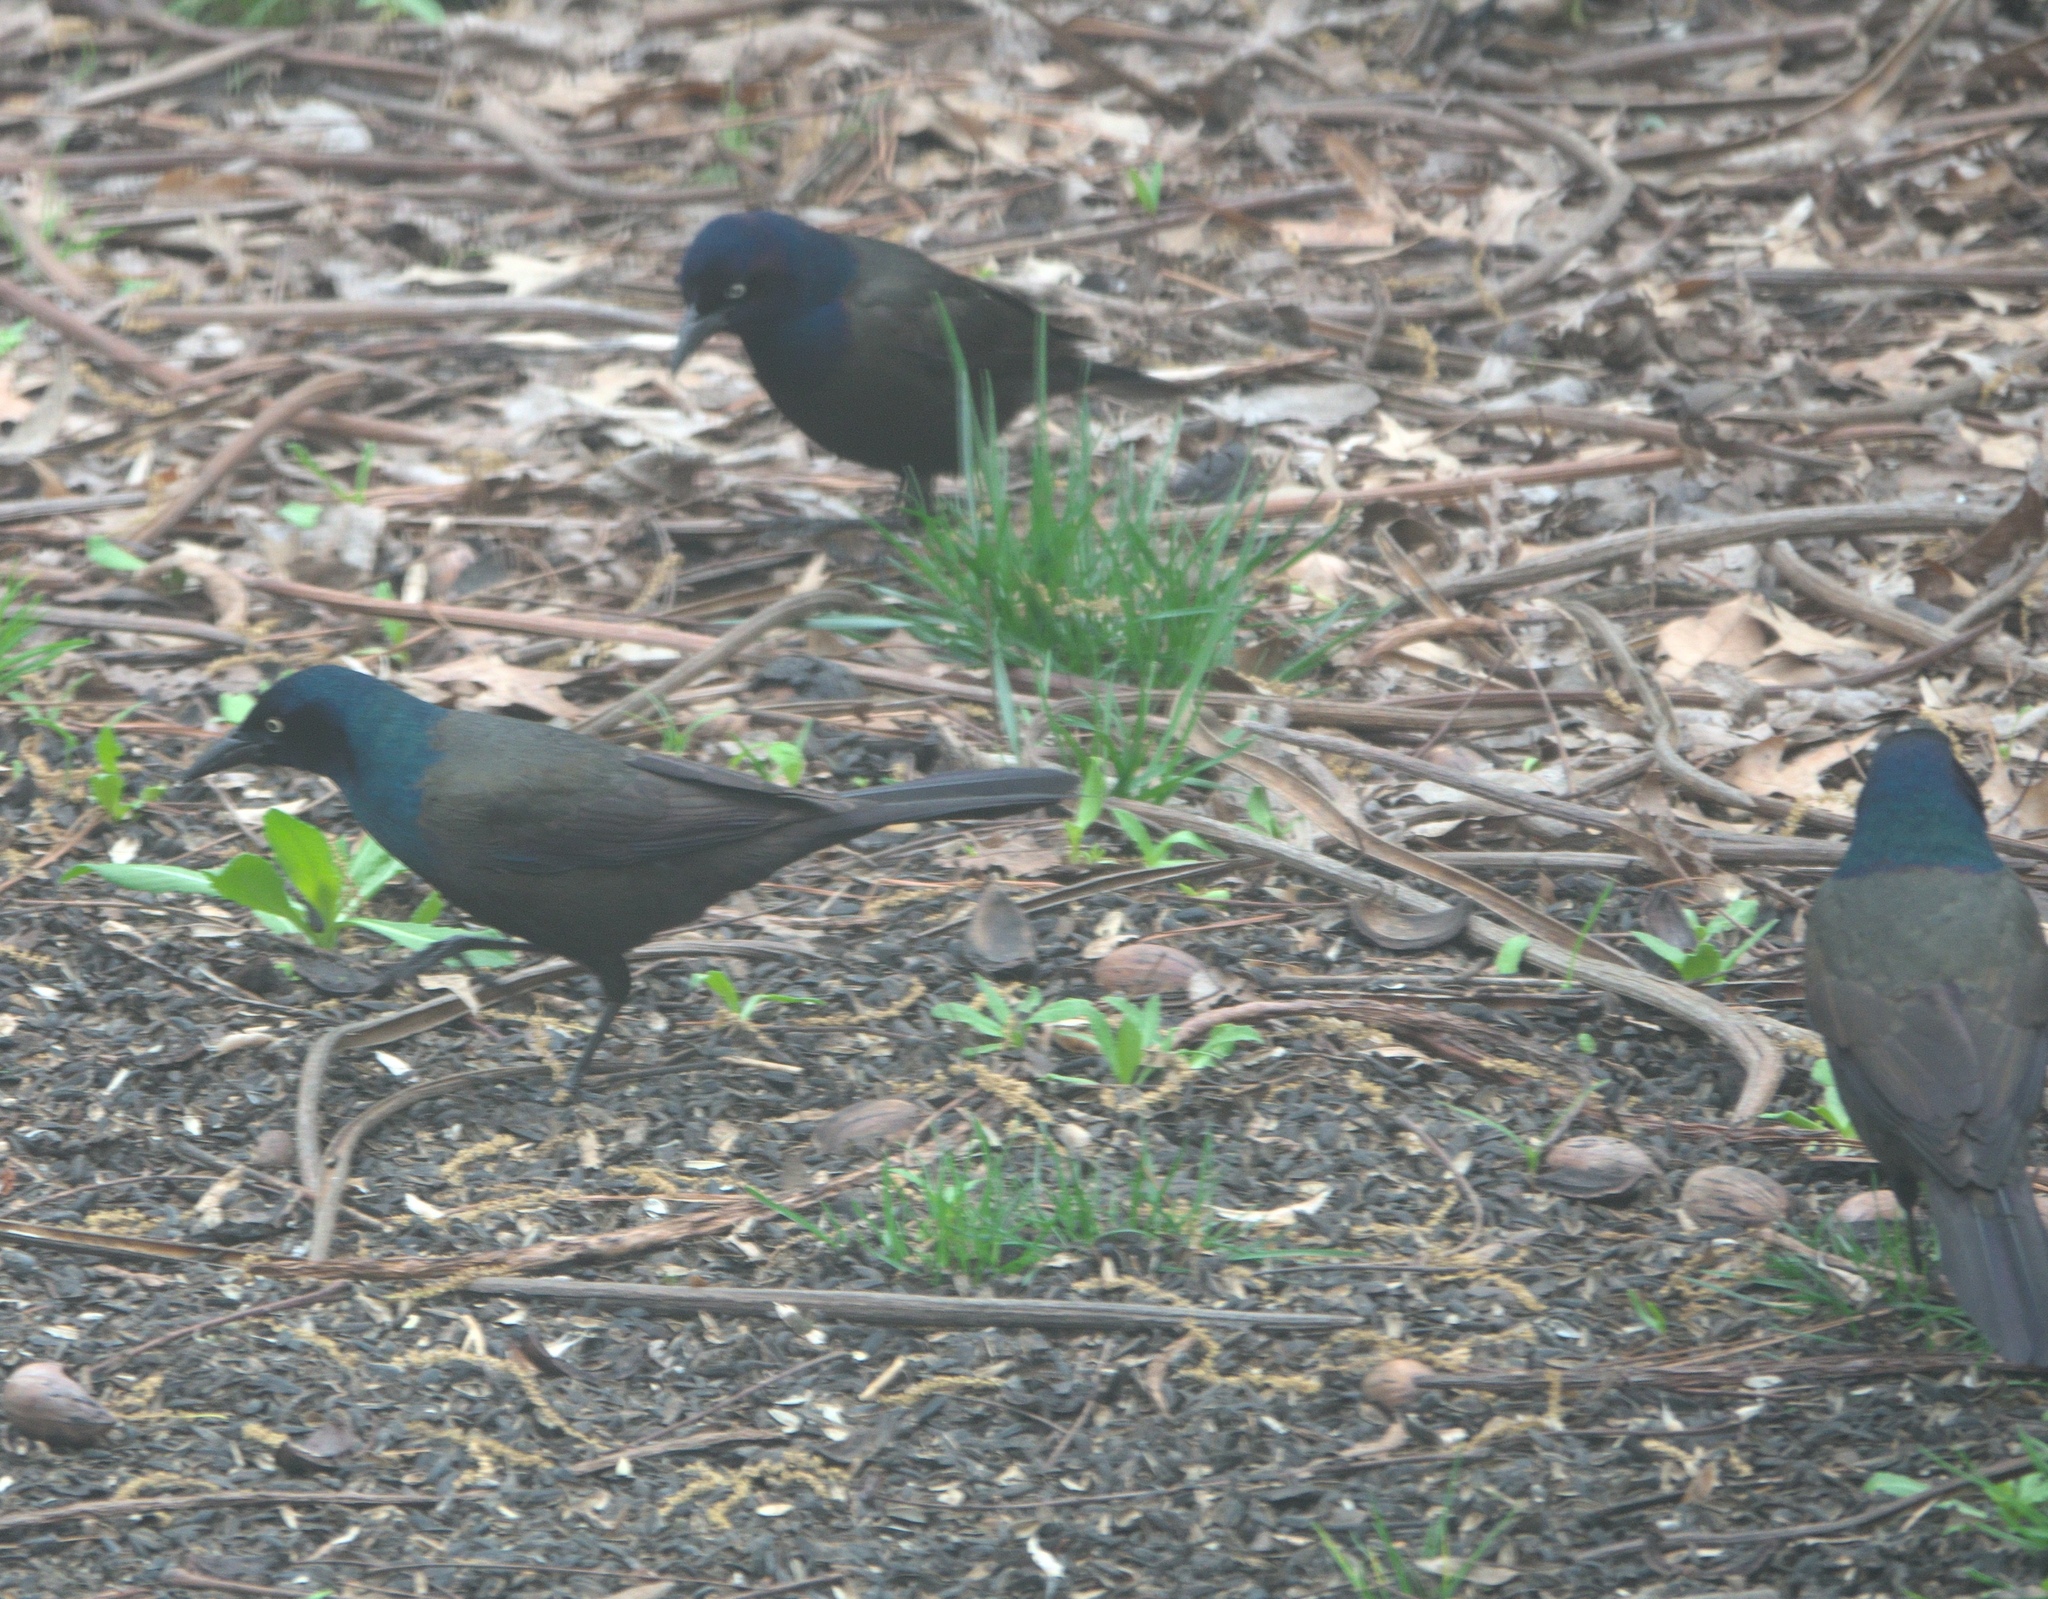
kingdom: Animalia
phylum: Chordata
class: Aves
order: Passeriformes
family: Icteridae
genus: Quiscalus
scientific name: Quiscalus quiscula
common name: Common grackle
